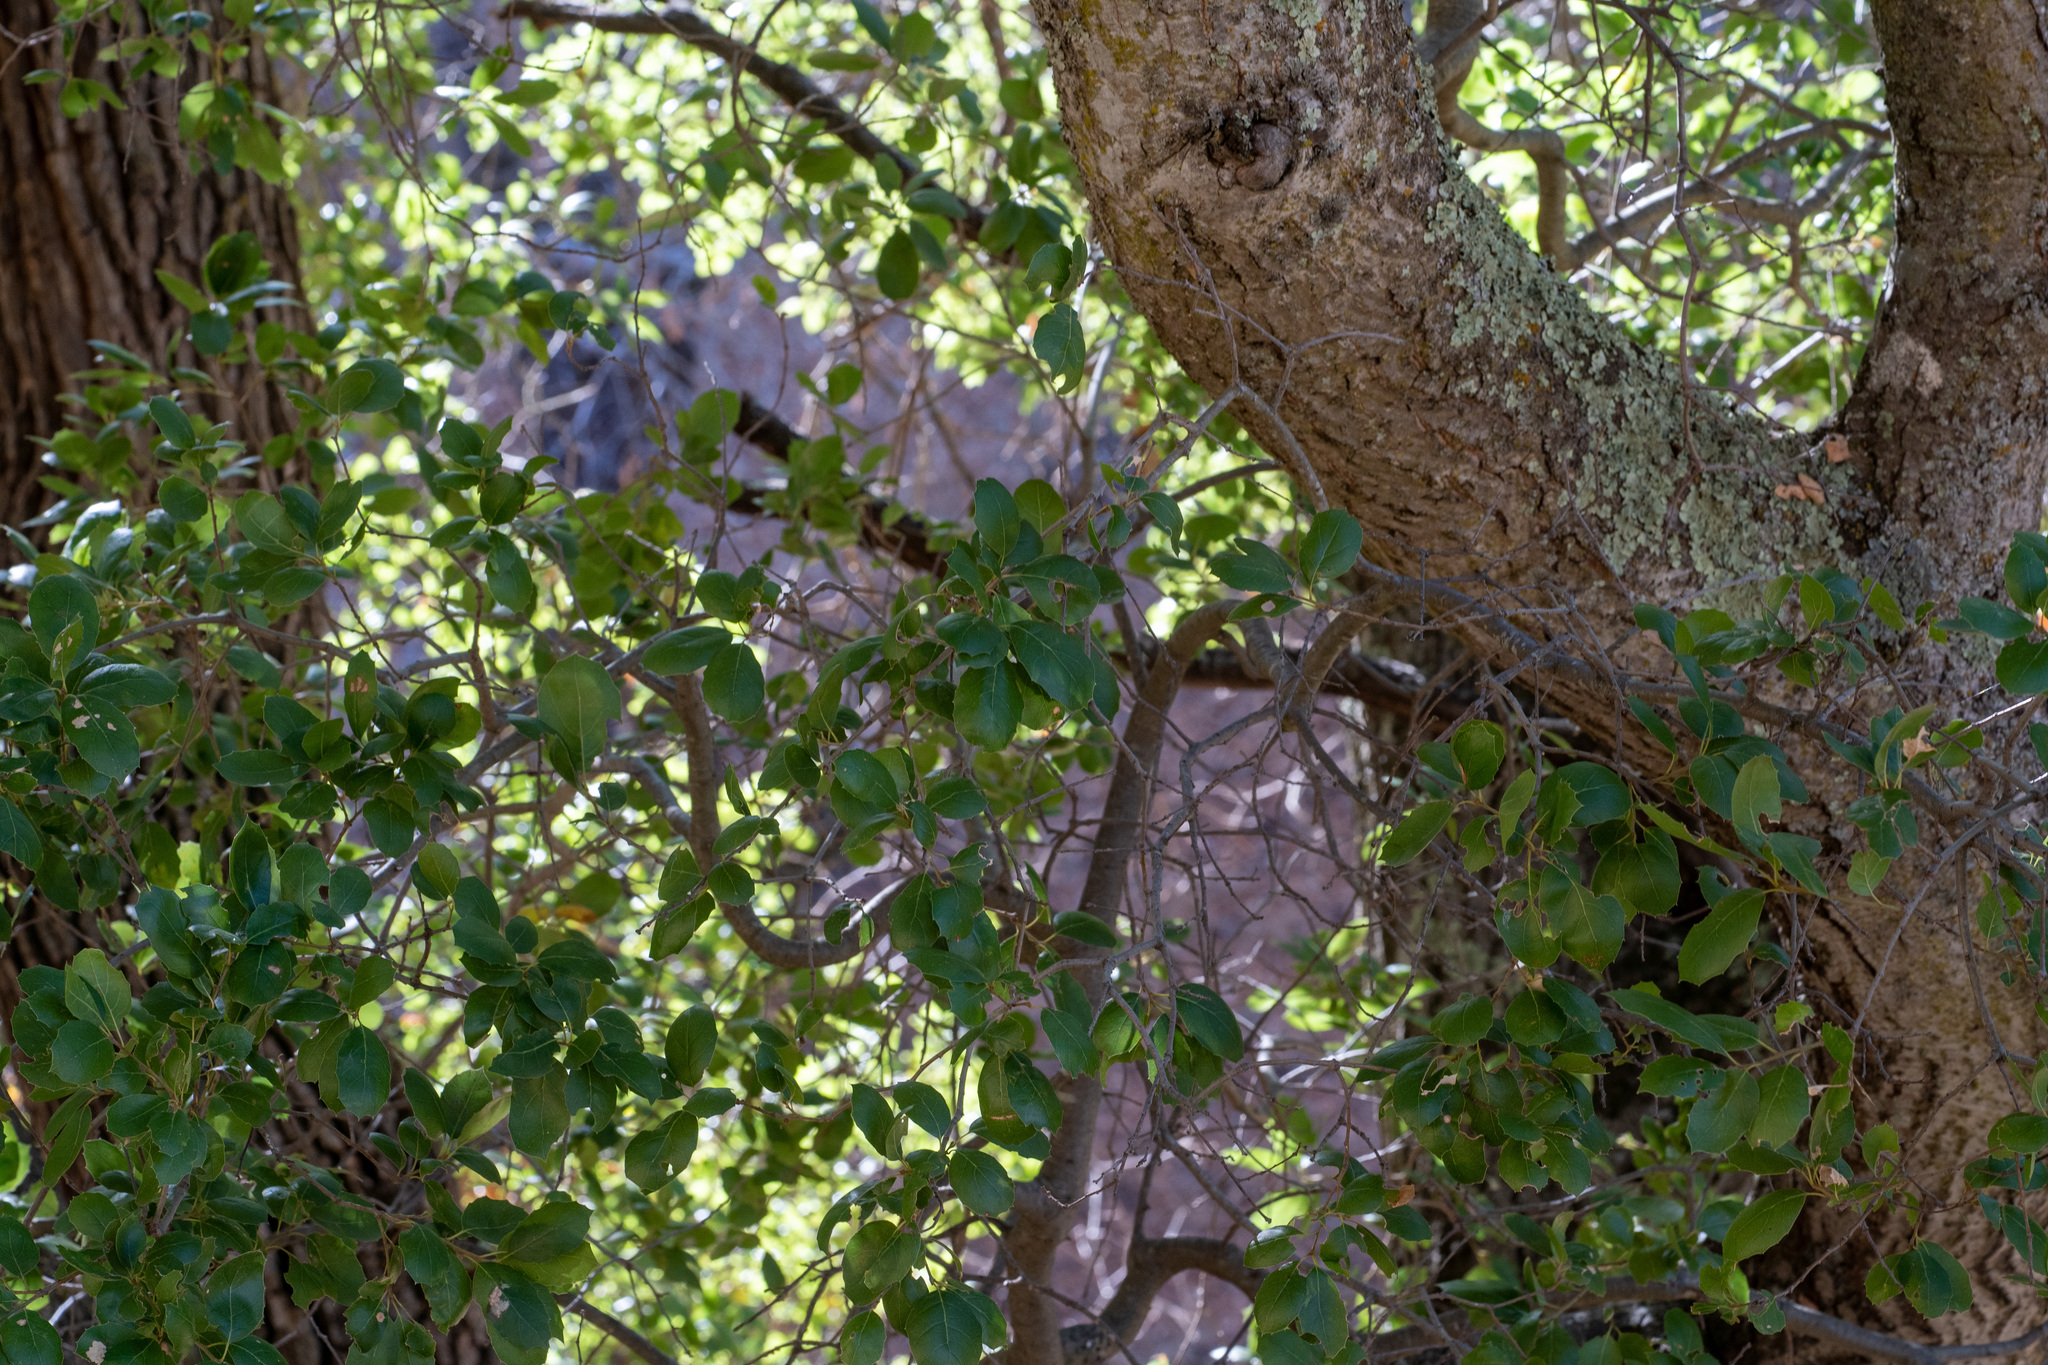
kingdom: Plantae
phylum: Tracheophyta
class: Magnoliopsida
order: Fagales
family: Fagaceae
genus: Quercus
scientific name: Quercus agrifolia
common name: California live oak
